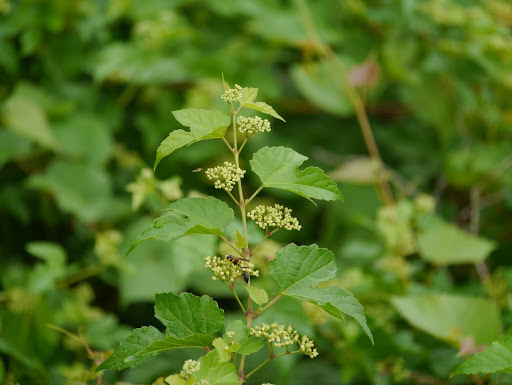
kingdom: Plantae
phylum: Tracheophyta
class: Magnoliopsida
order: Vitales
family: Vitaceae
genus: Ampelopsis
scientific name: Ampelopsis glandulosa
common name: Amur peppervine
